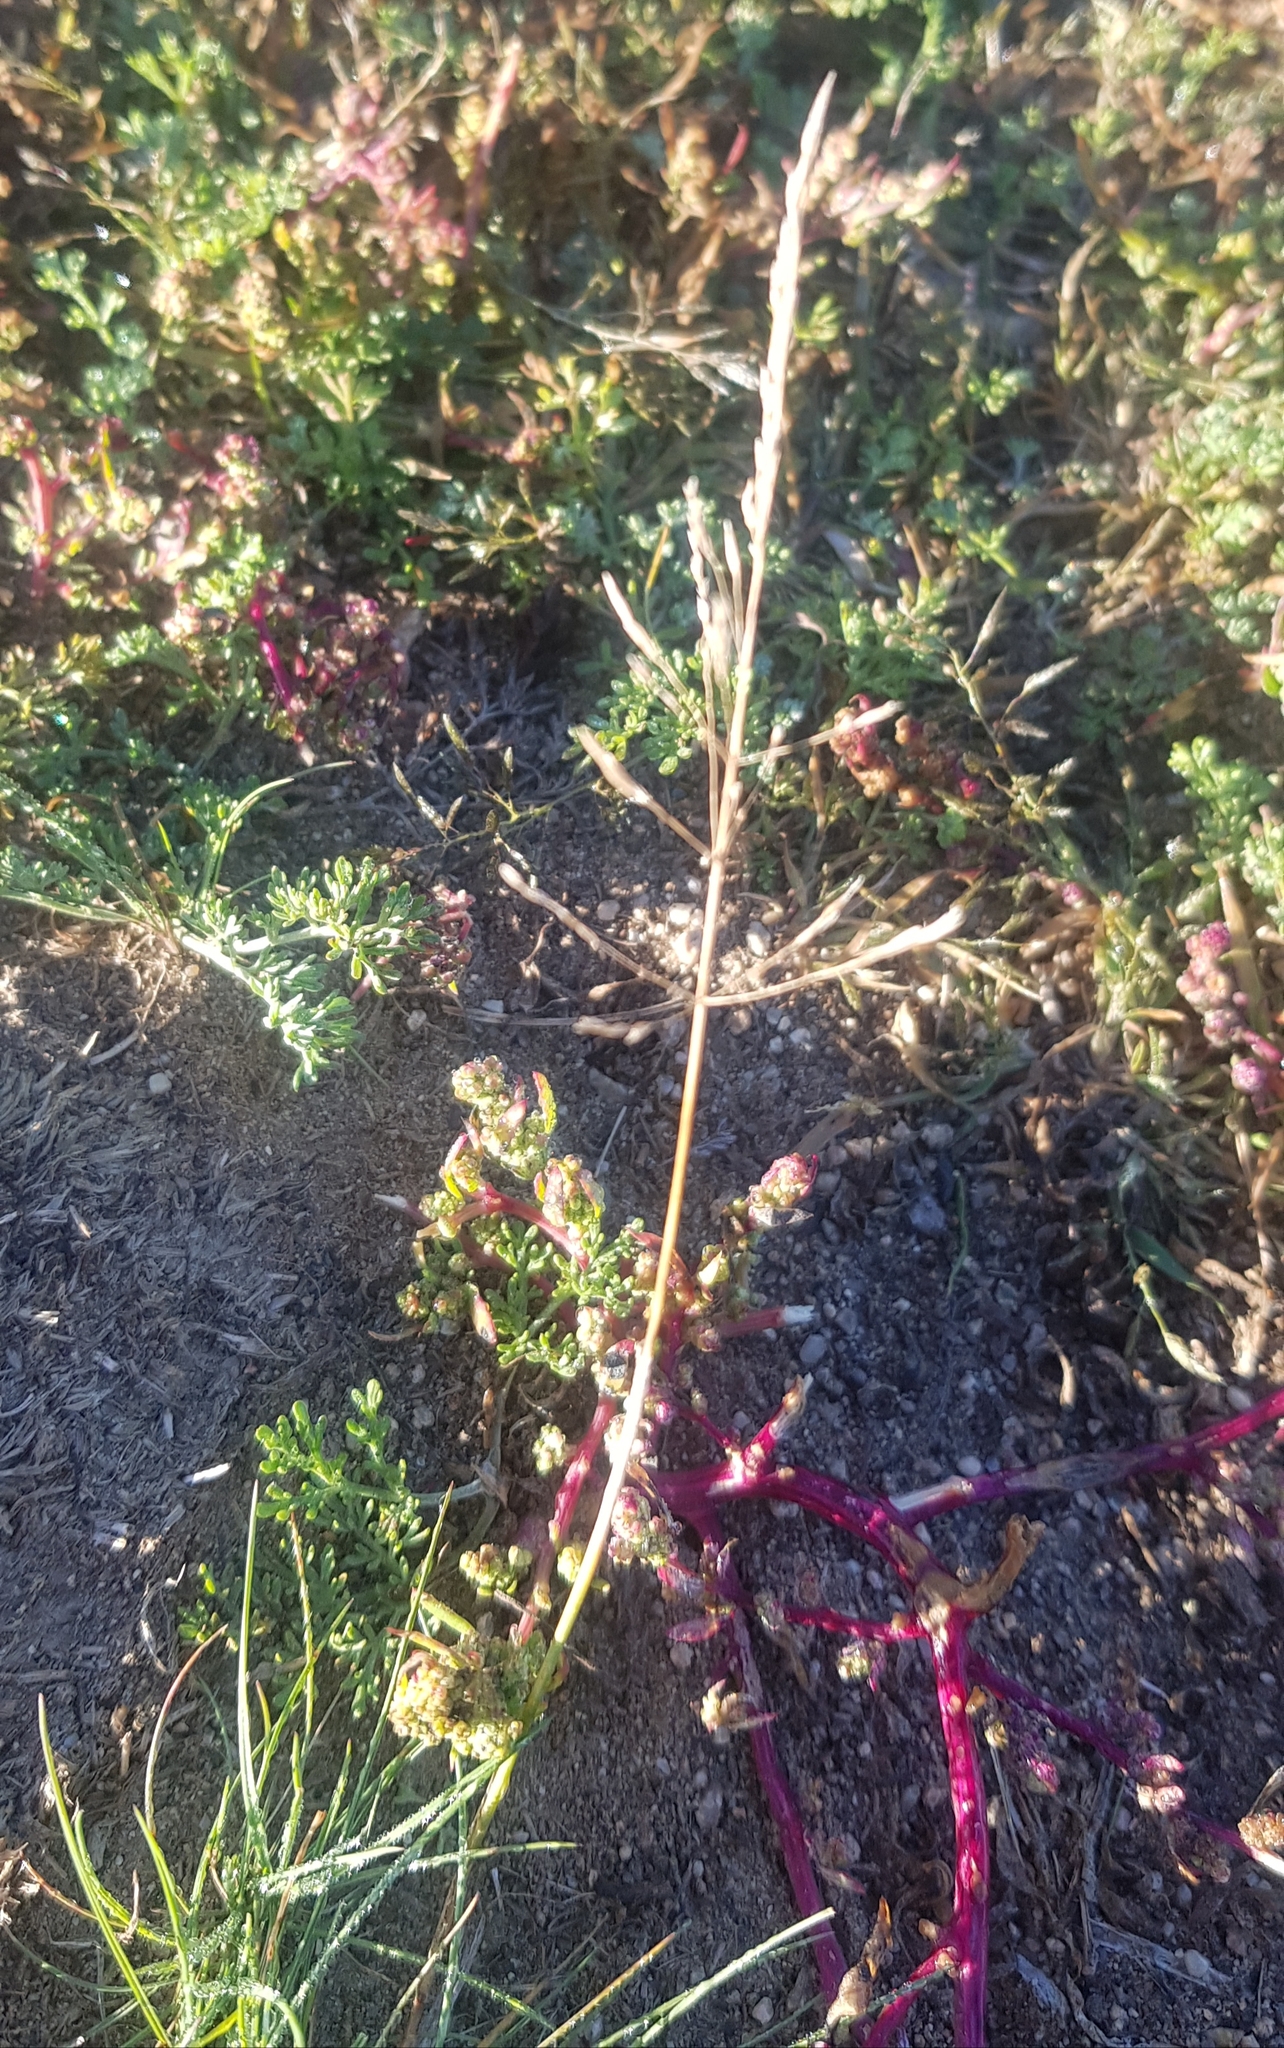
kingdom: Plantae
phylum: Tracheophyta
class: Liliopsida
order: Poales
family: Poaceae
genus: Poa
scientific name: Poa attenuata
